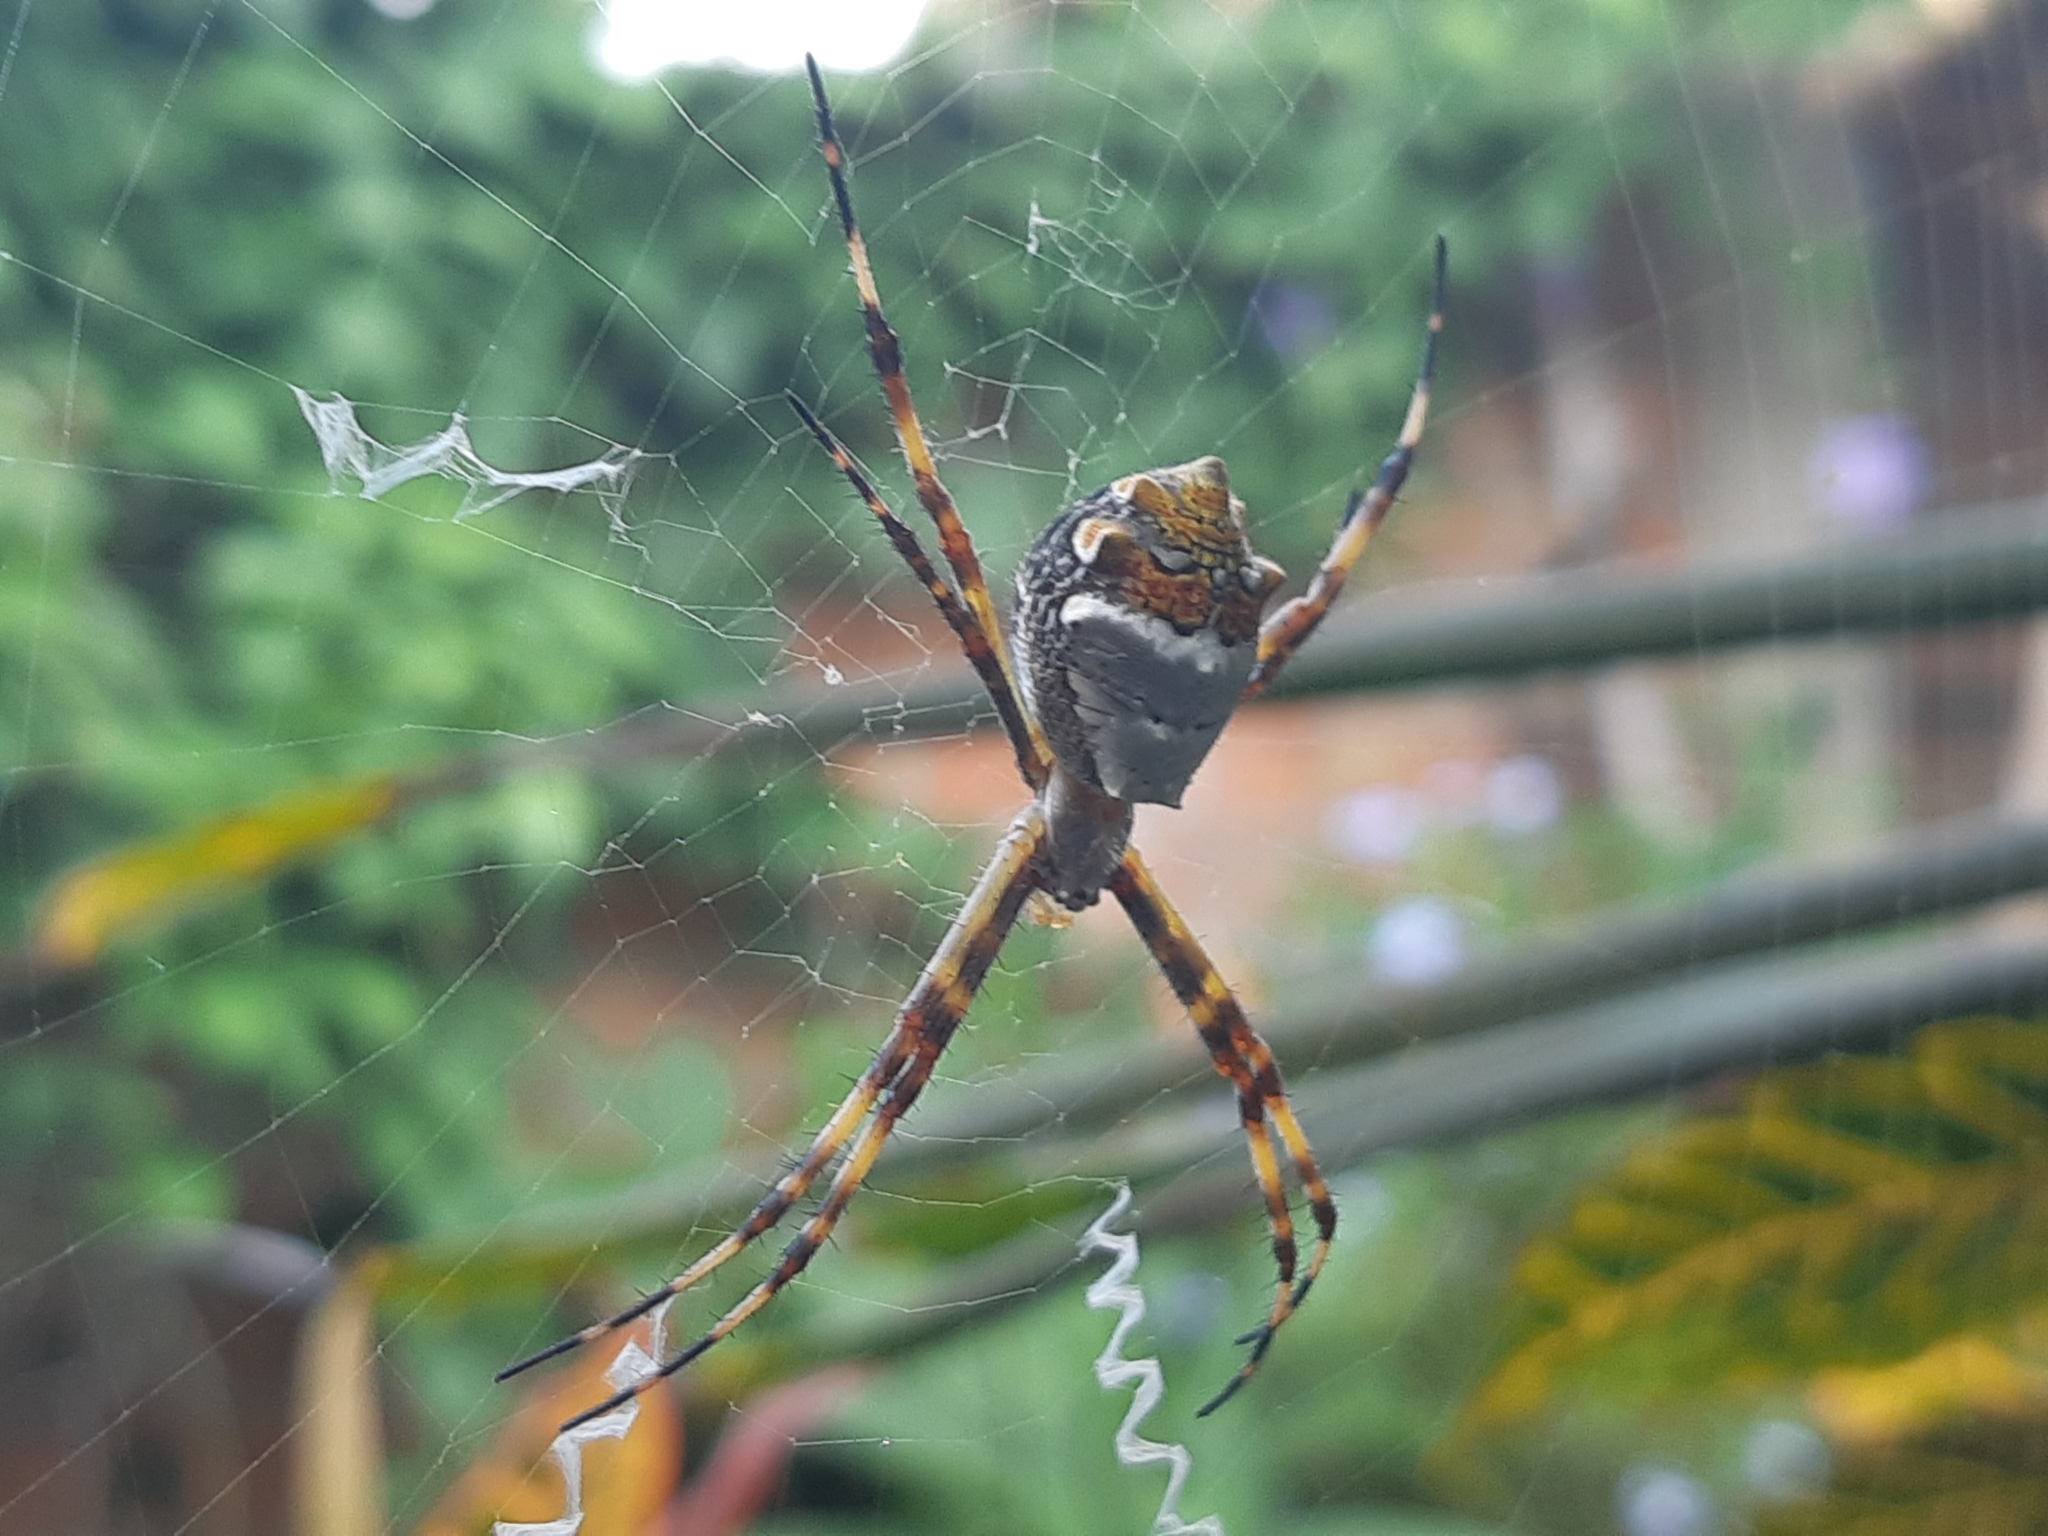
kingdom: Animalia
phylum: Arthropoda
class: Arachnida
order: Araneae
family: Araneidae
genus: Argiope
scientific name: Argiope argentata
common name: Orb weavers
